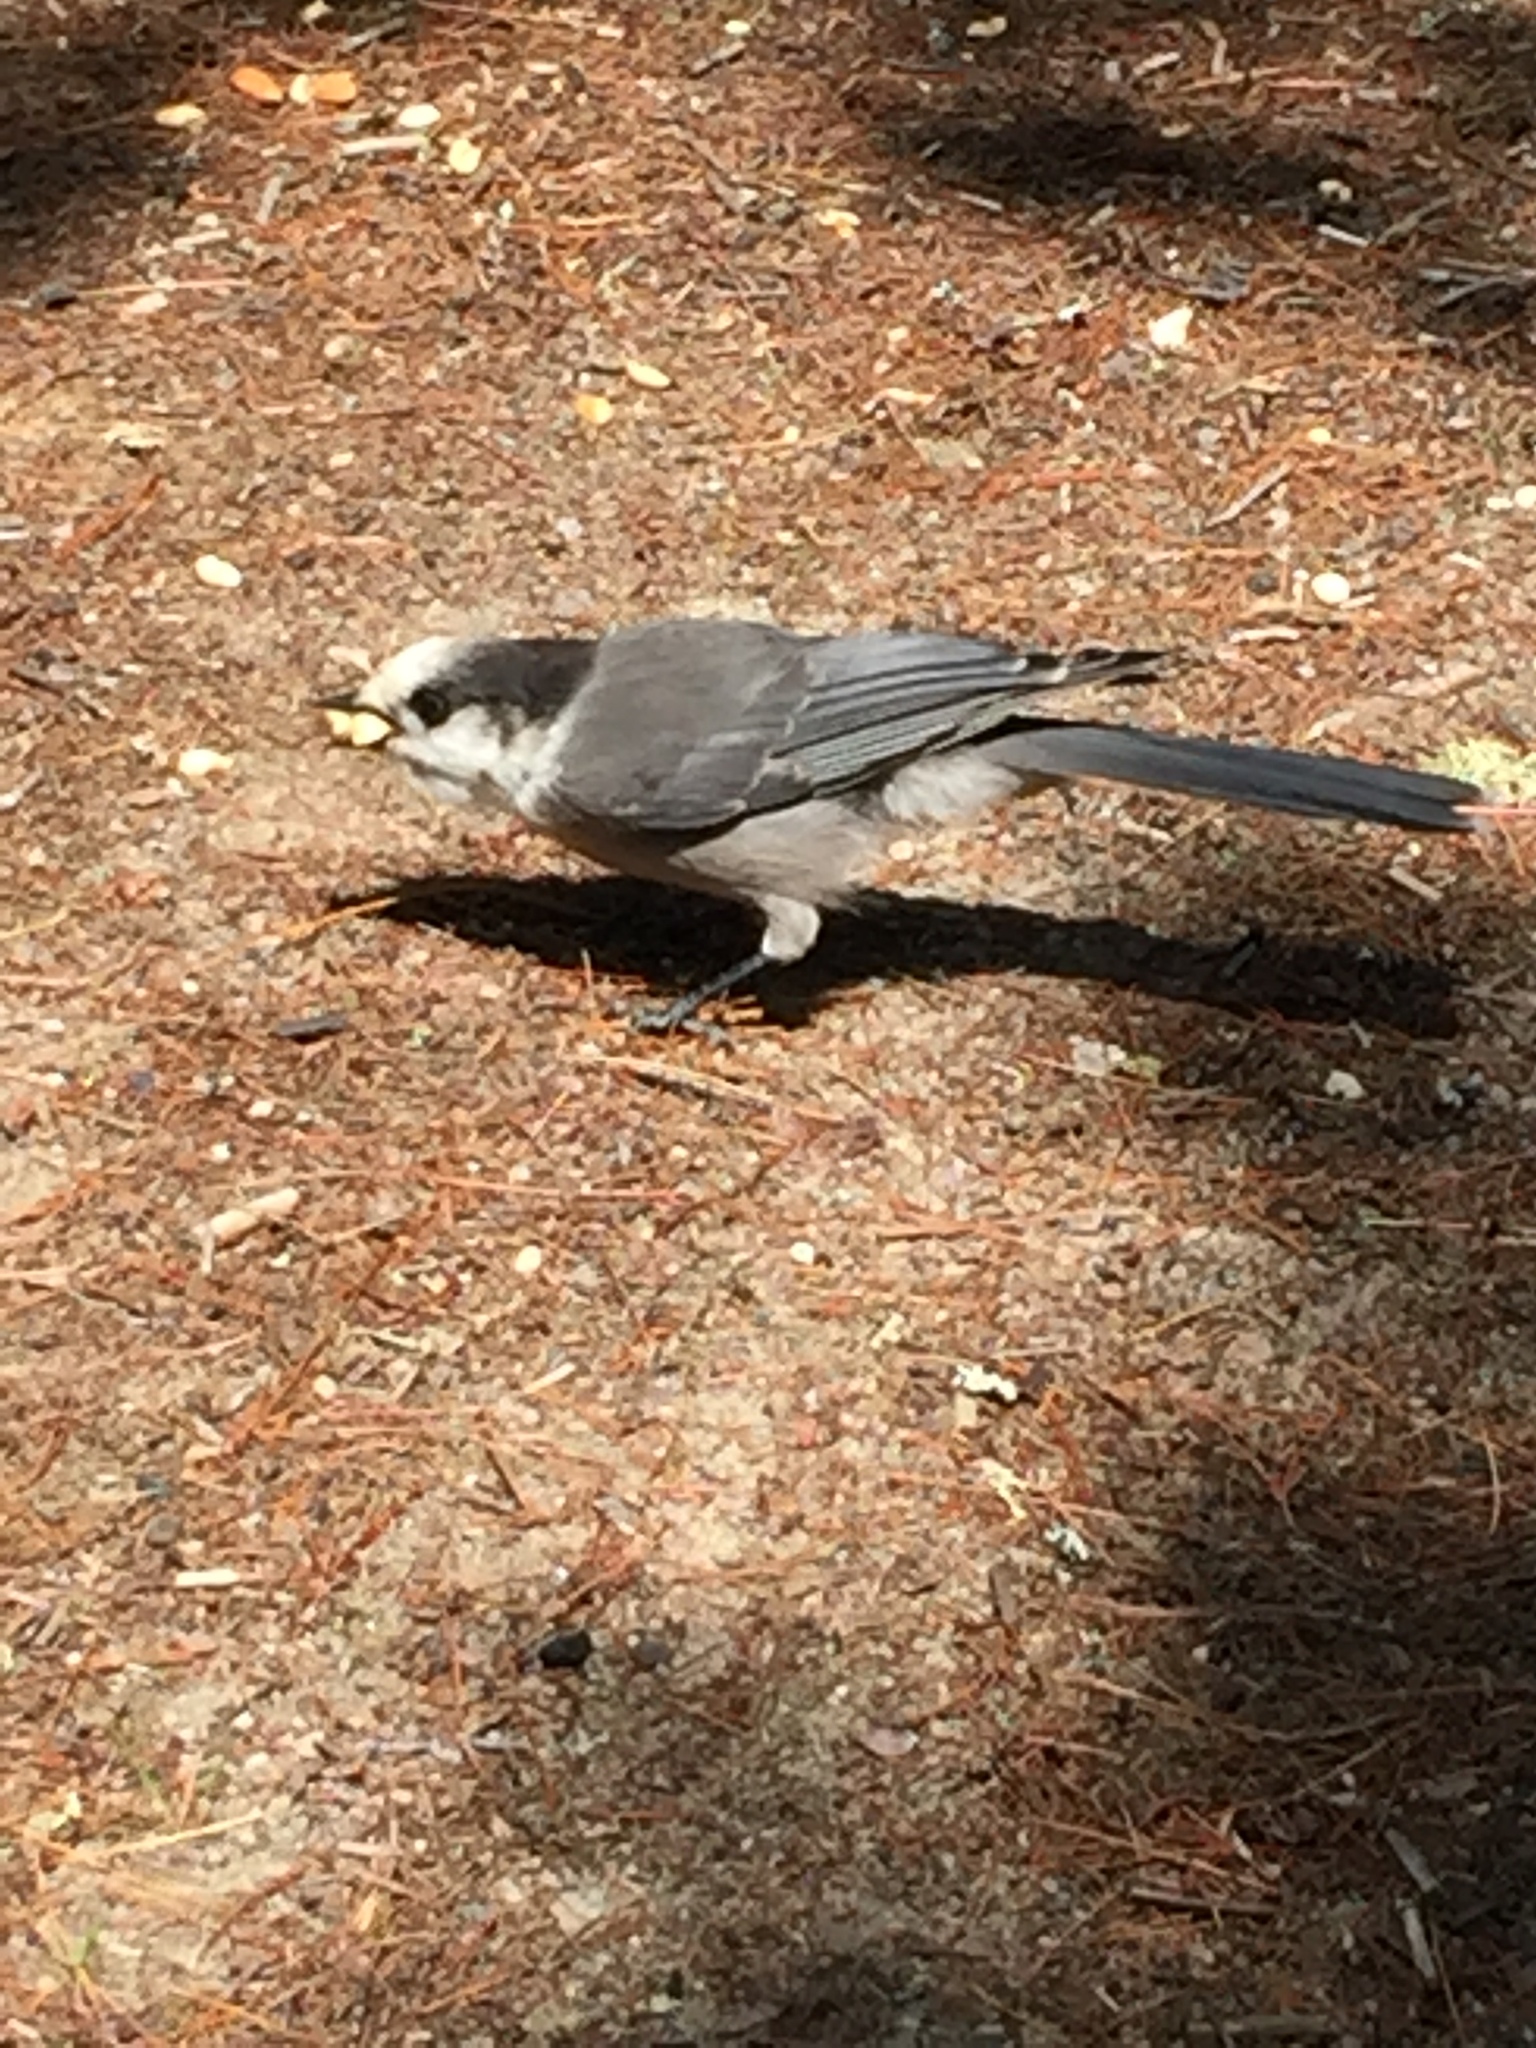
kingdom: Animalia
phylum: Chordata
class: Aves
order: Passeriformes
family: Corvidae
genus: Perisoreus
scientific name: Perisoreus canadensis
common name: Gray jay
